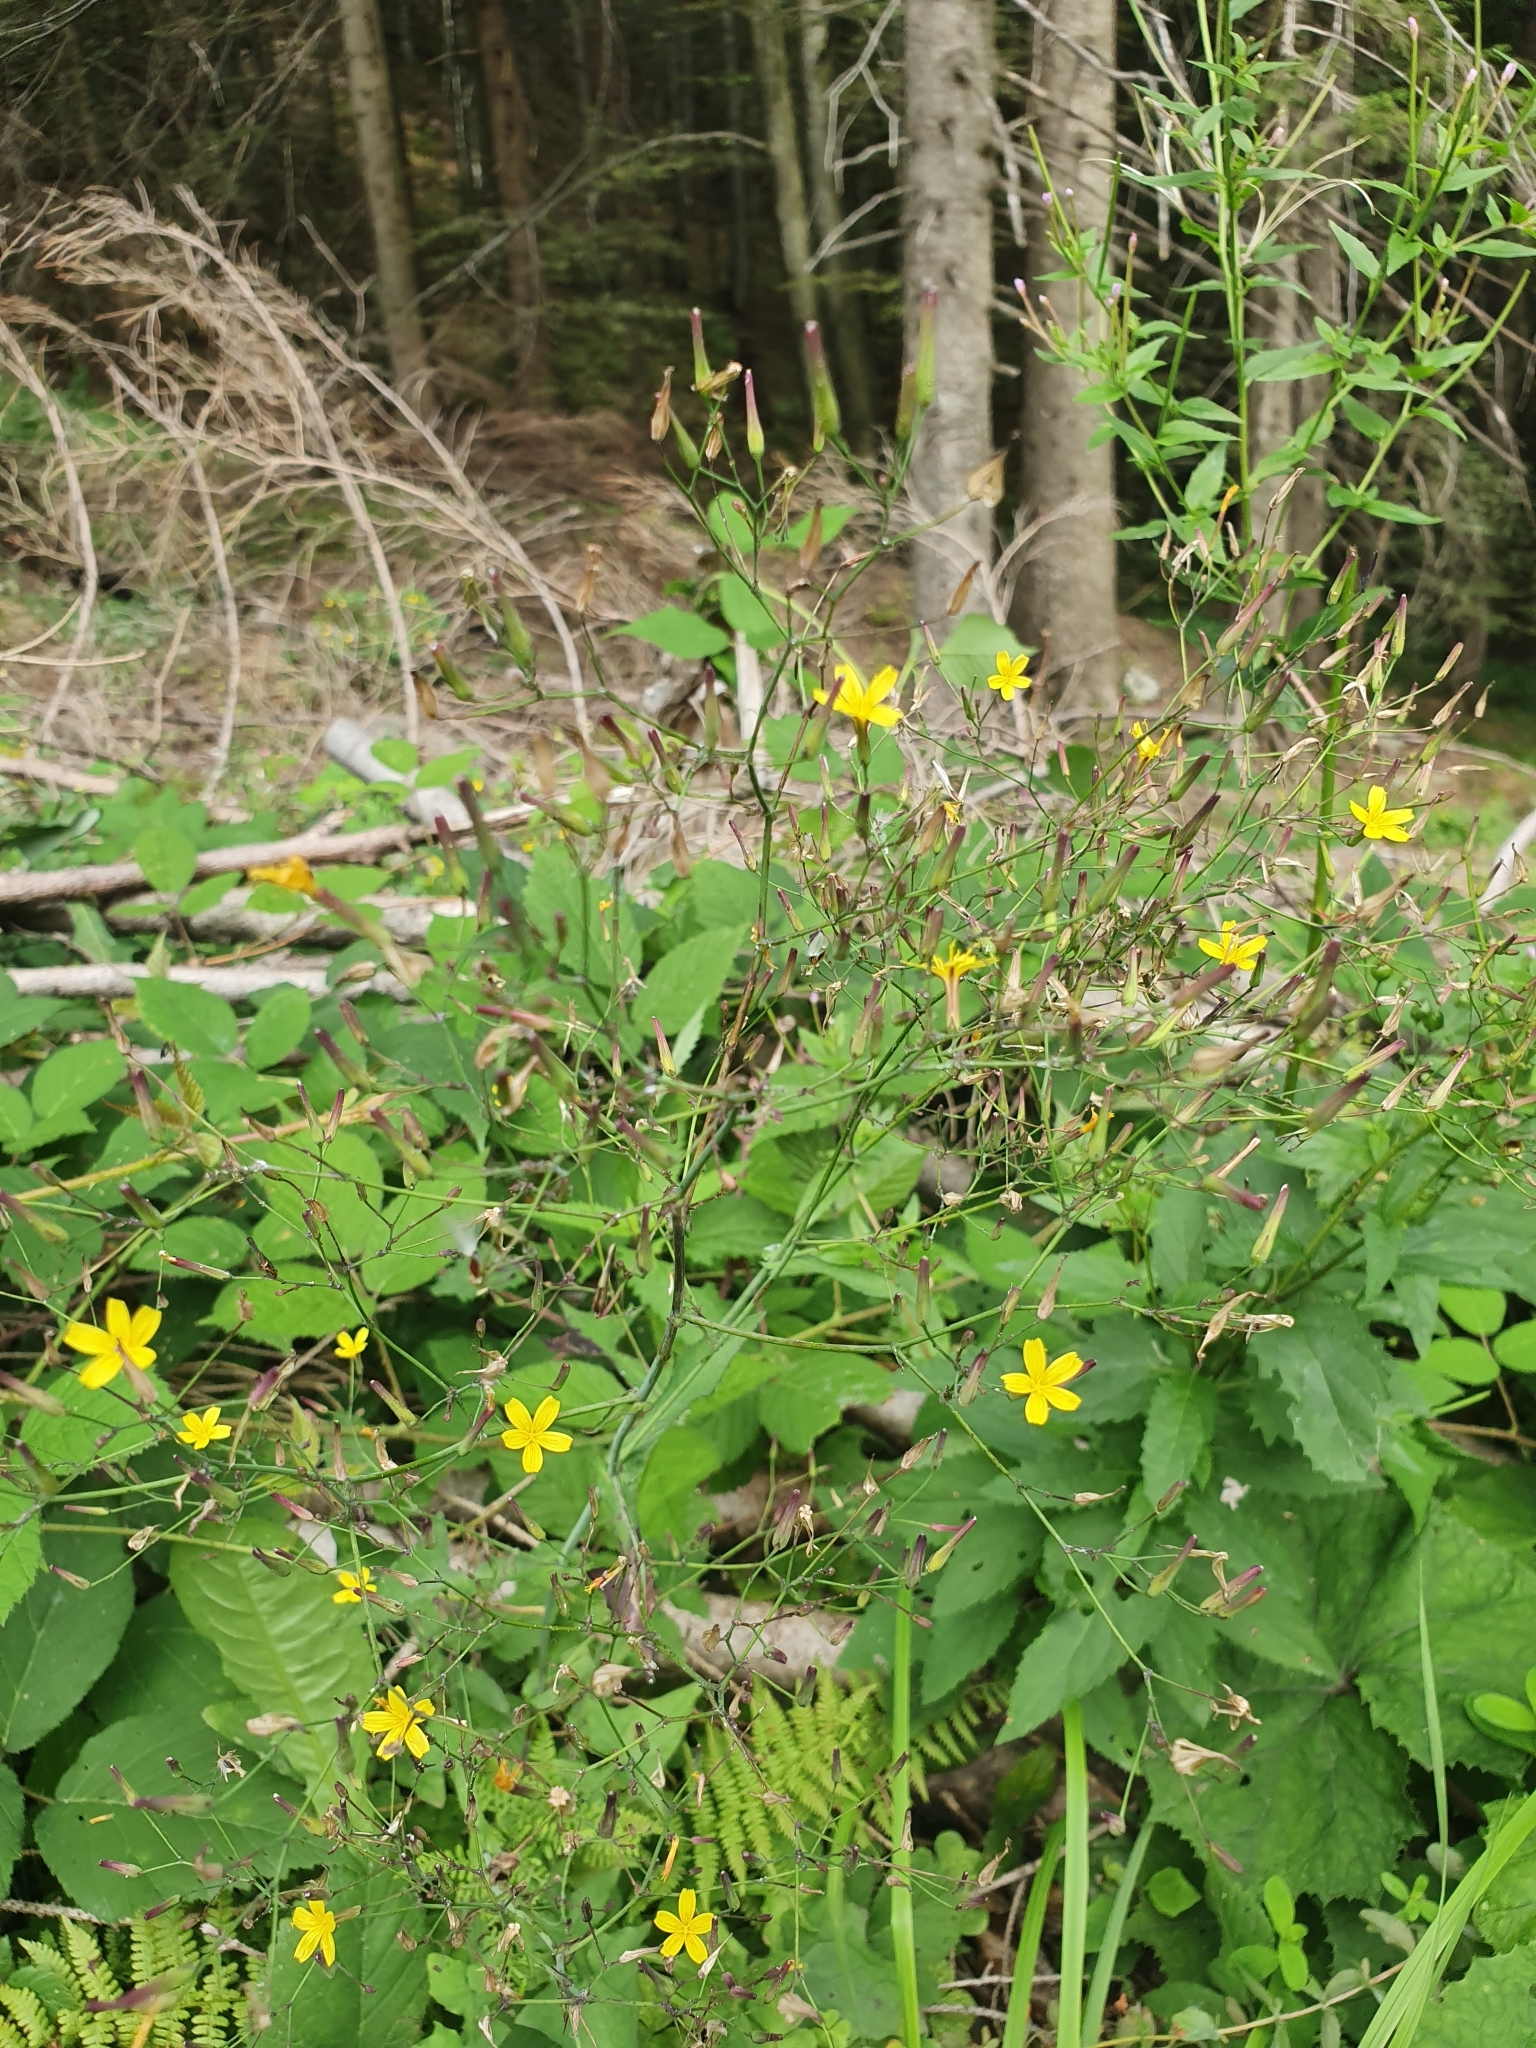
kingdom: Plantae
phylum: Tracheophyta
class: Magnoliopsida
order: Asterales
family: Asteraceae
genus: Mycelis
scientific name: Mycelis muralis
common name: Wall lettuce
